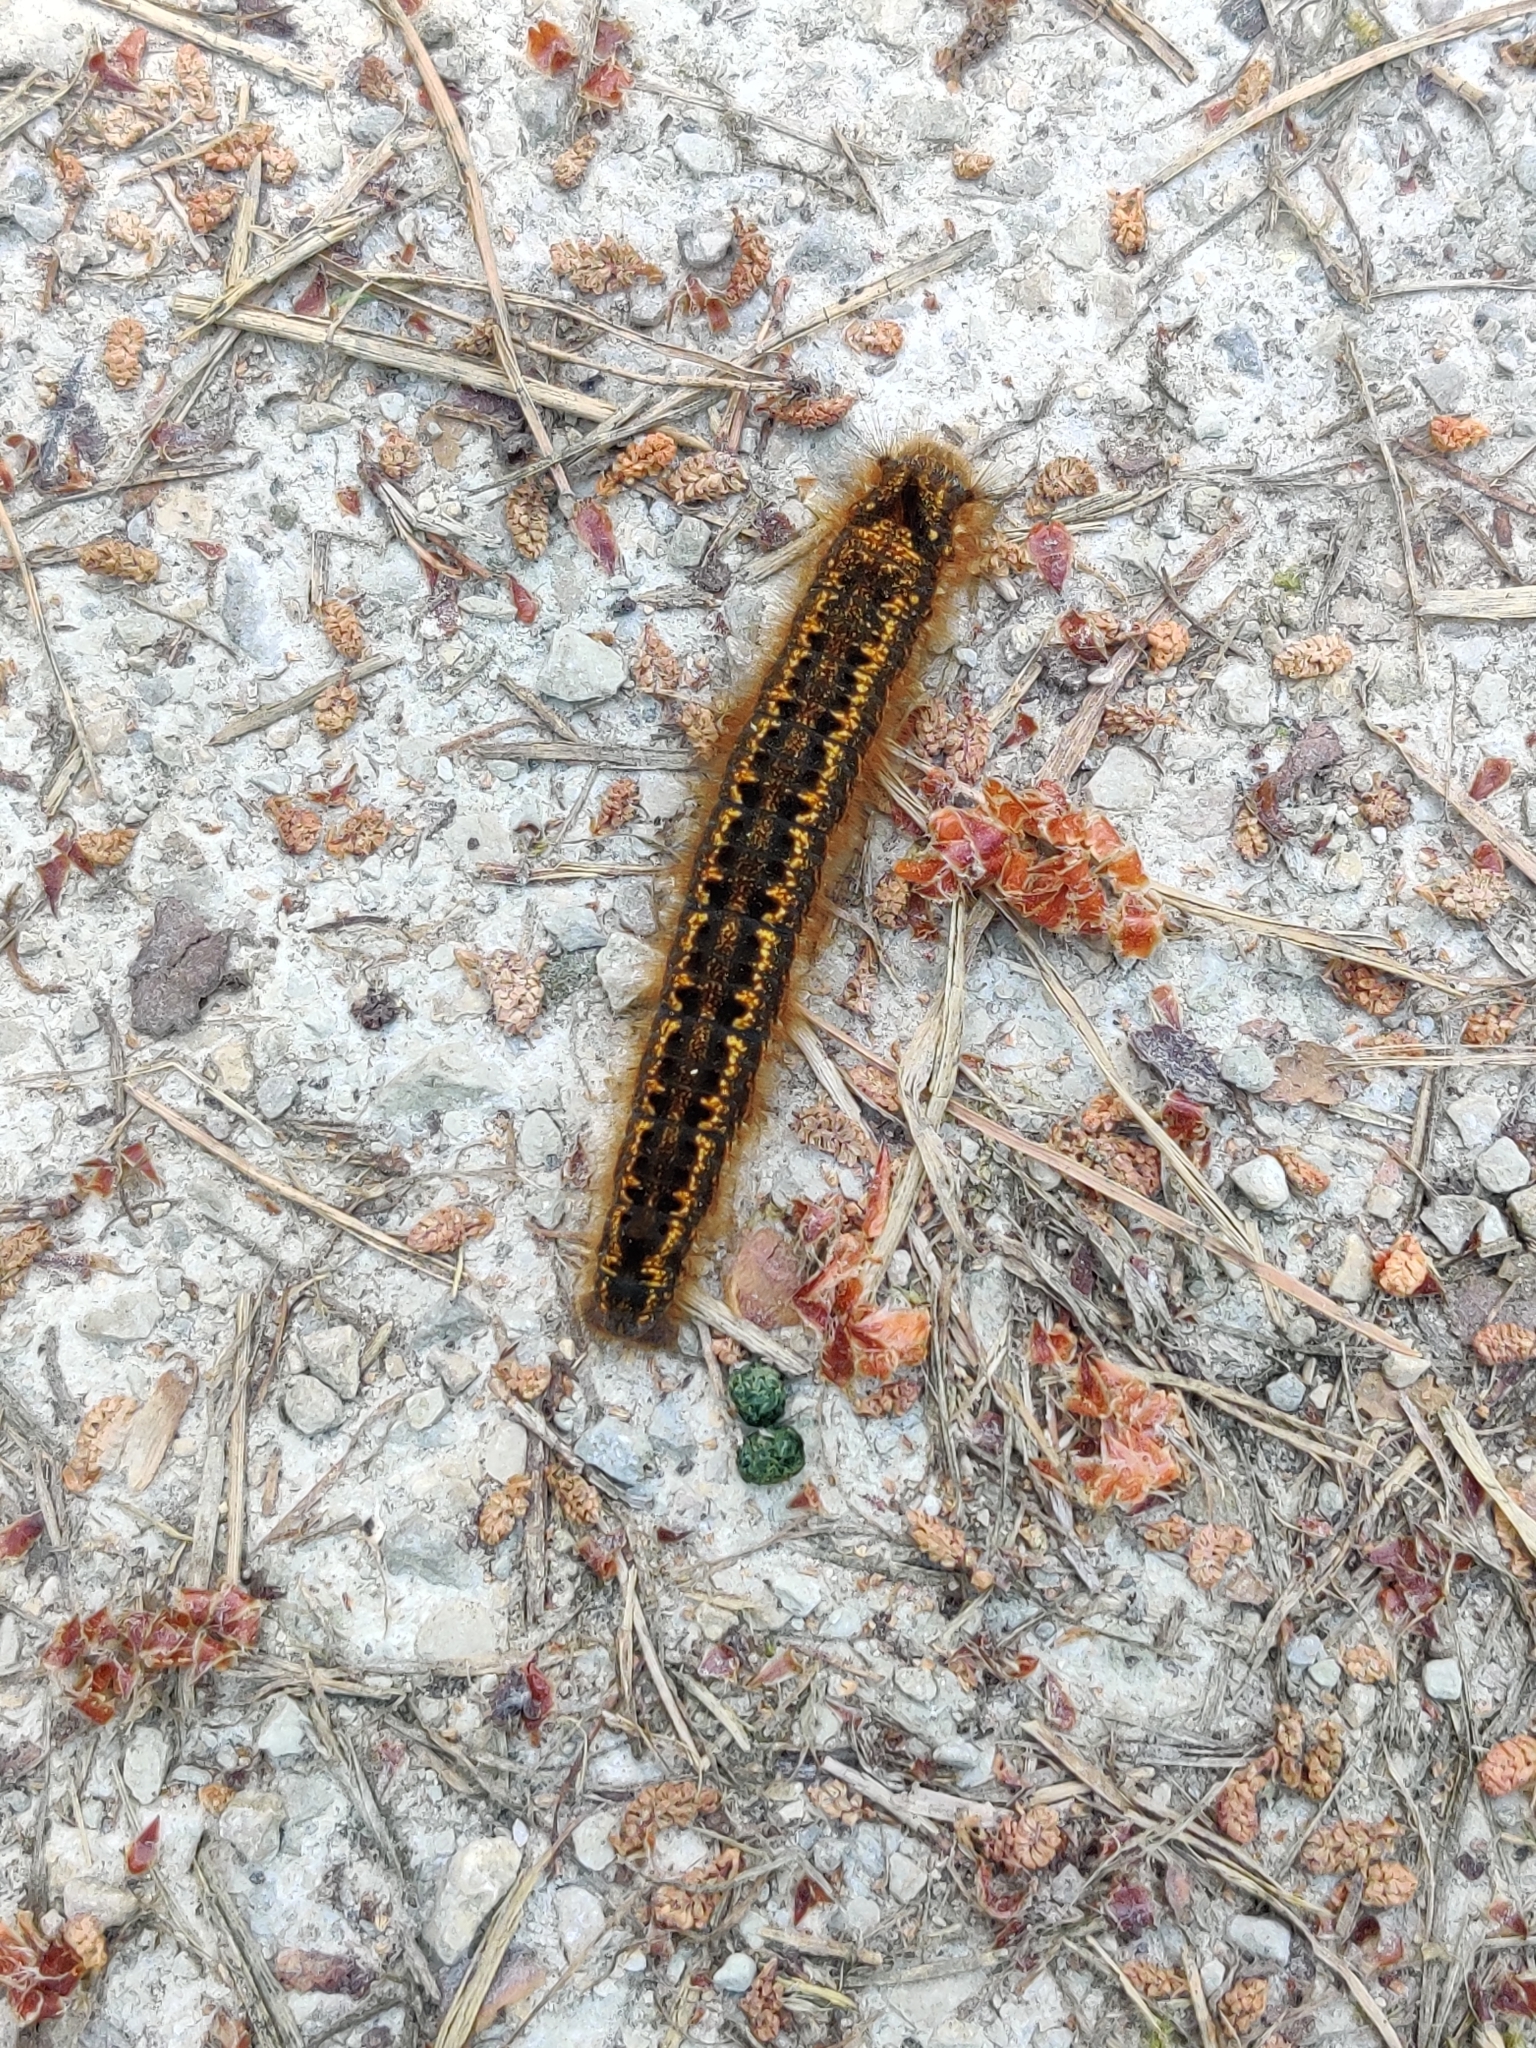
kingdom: Animalia
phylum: Arthropoda
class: Insecta
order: Lepidoptera
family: Lasiocampidae
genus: Euthrix
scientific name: Euthrix potatoria
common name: Drinker
